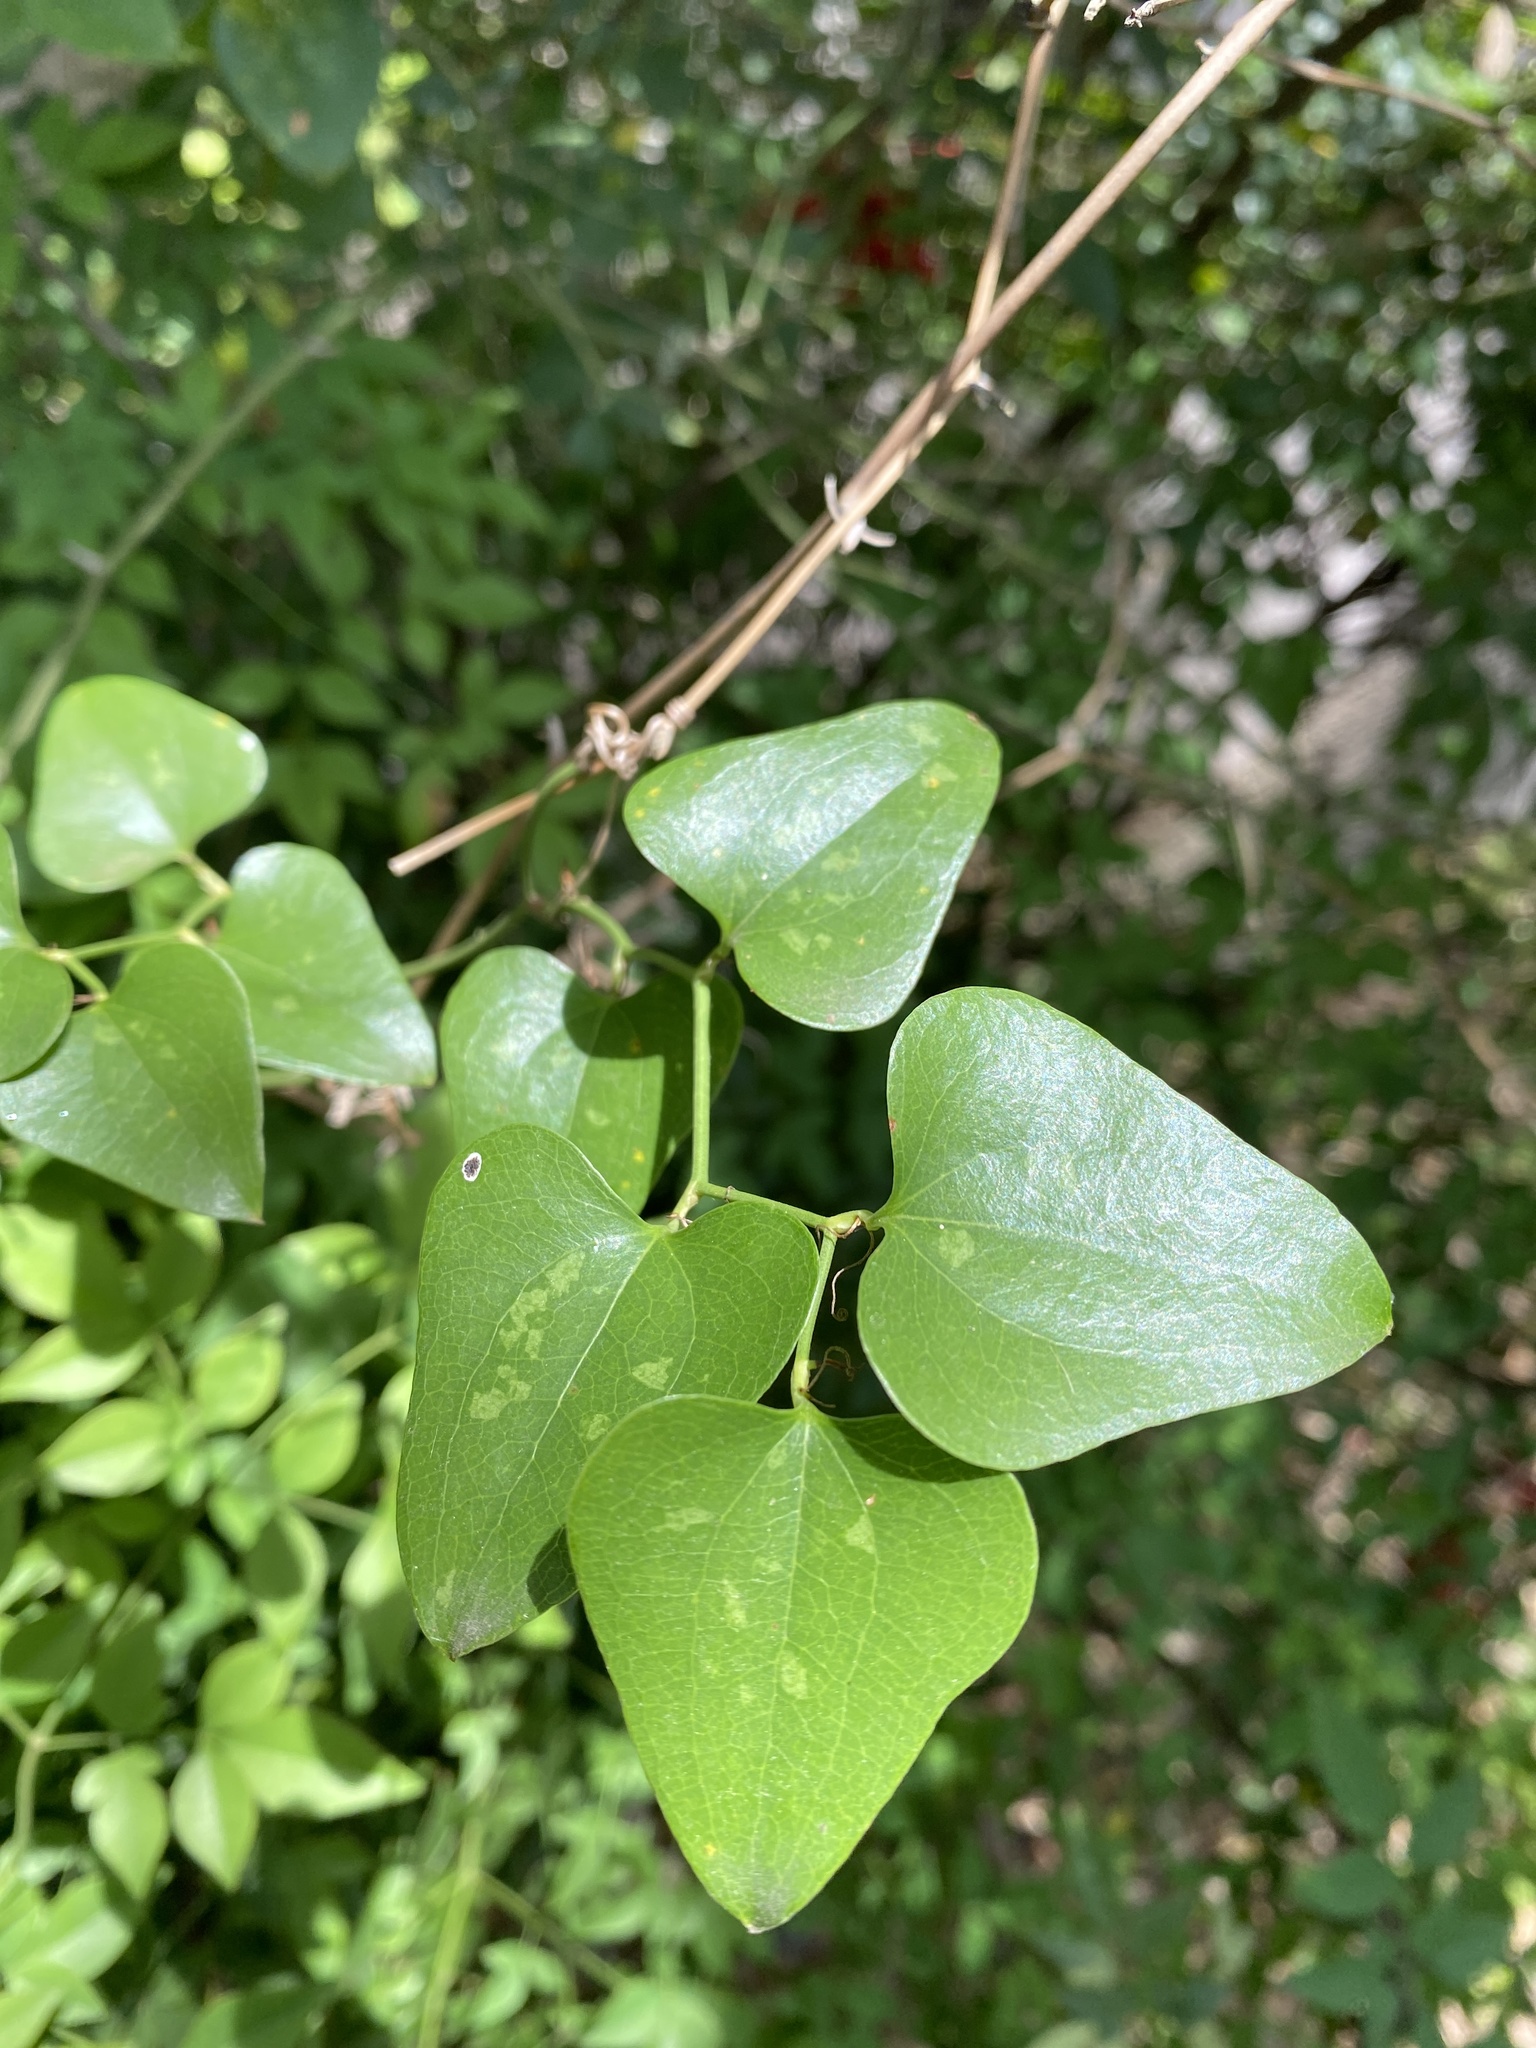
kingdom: Plantae
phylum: Tracheophyta
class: Liliopsida
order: Liliales
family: Smilacaceae
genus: Smilax
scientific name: Smilax bona-nox
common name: Catbrier
